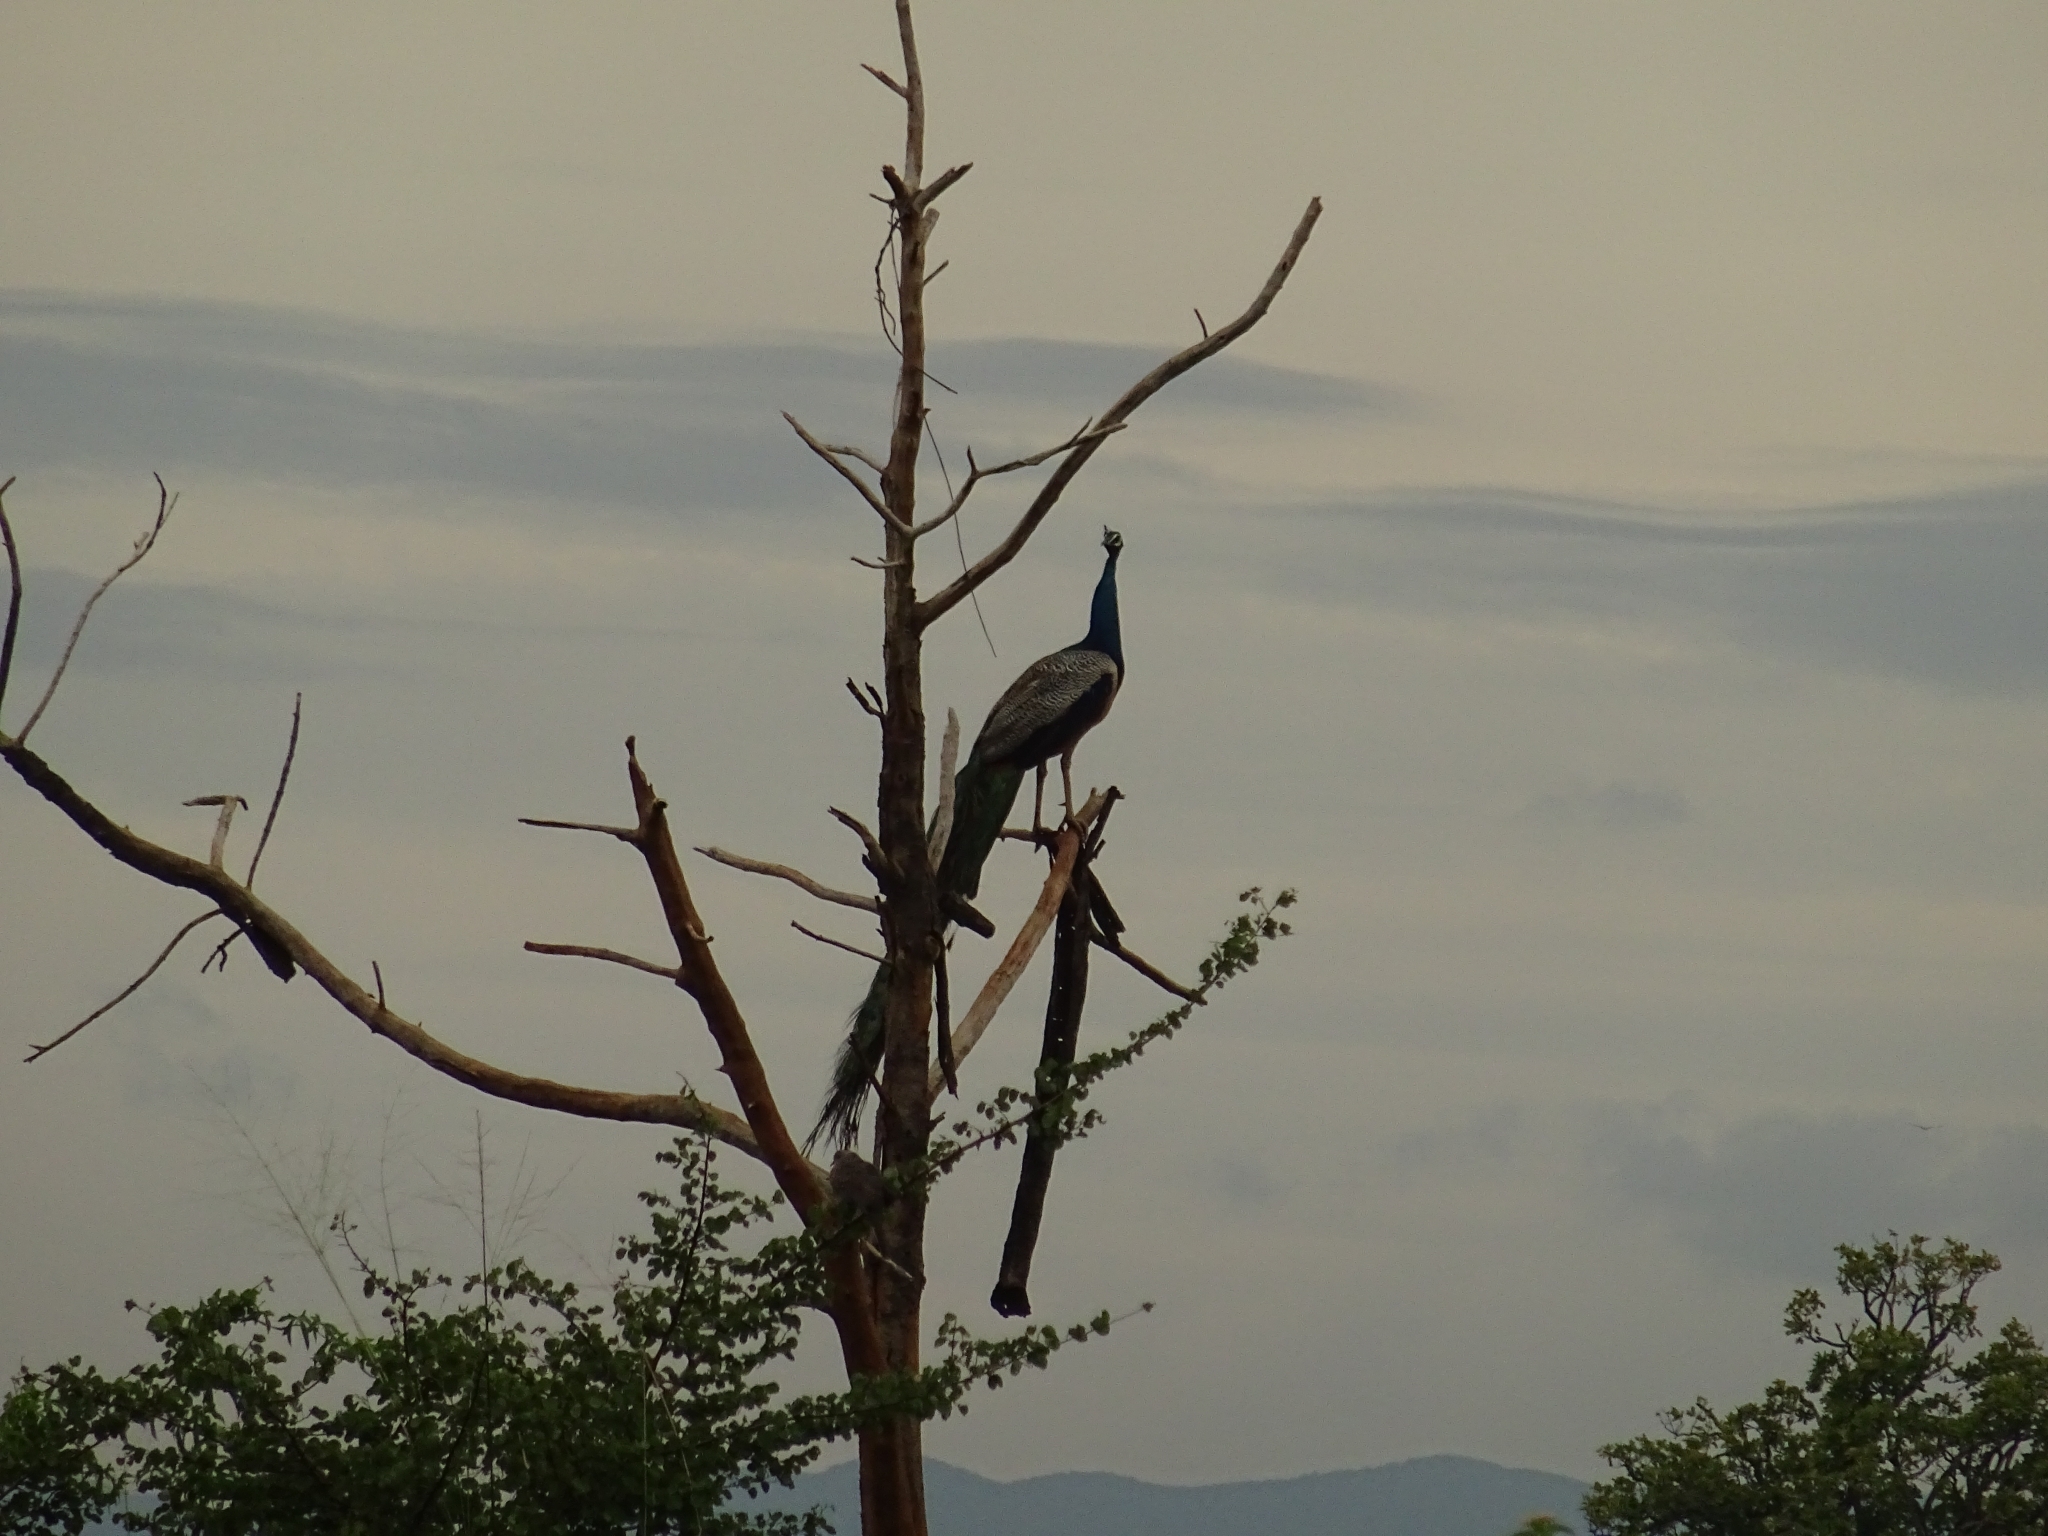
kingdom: Animalia
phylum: Chordata
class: Aves
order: Galliformes
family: Phasianidae
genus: Pavo
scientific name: Pavo cristatus
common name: Indian peafowl
